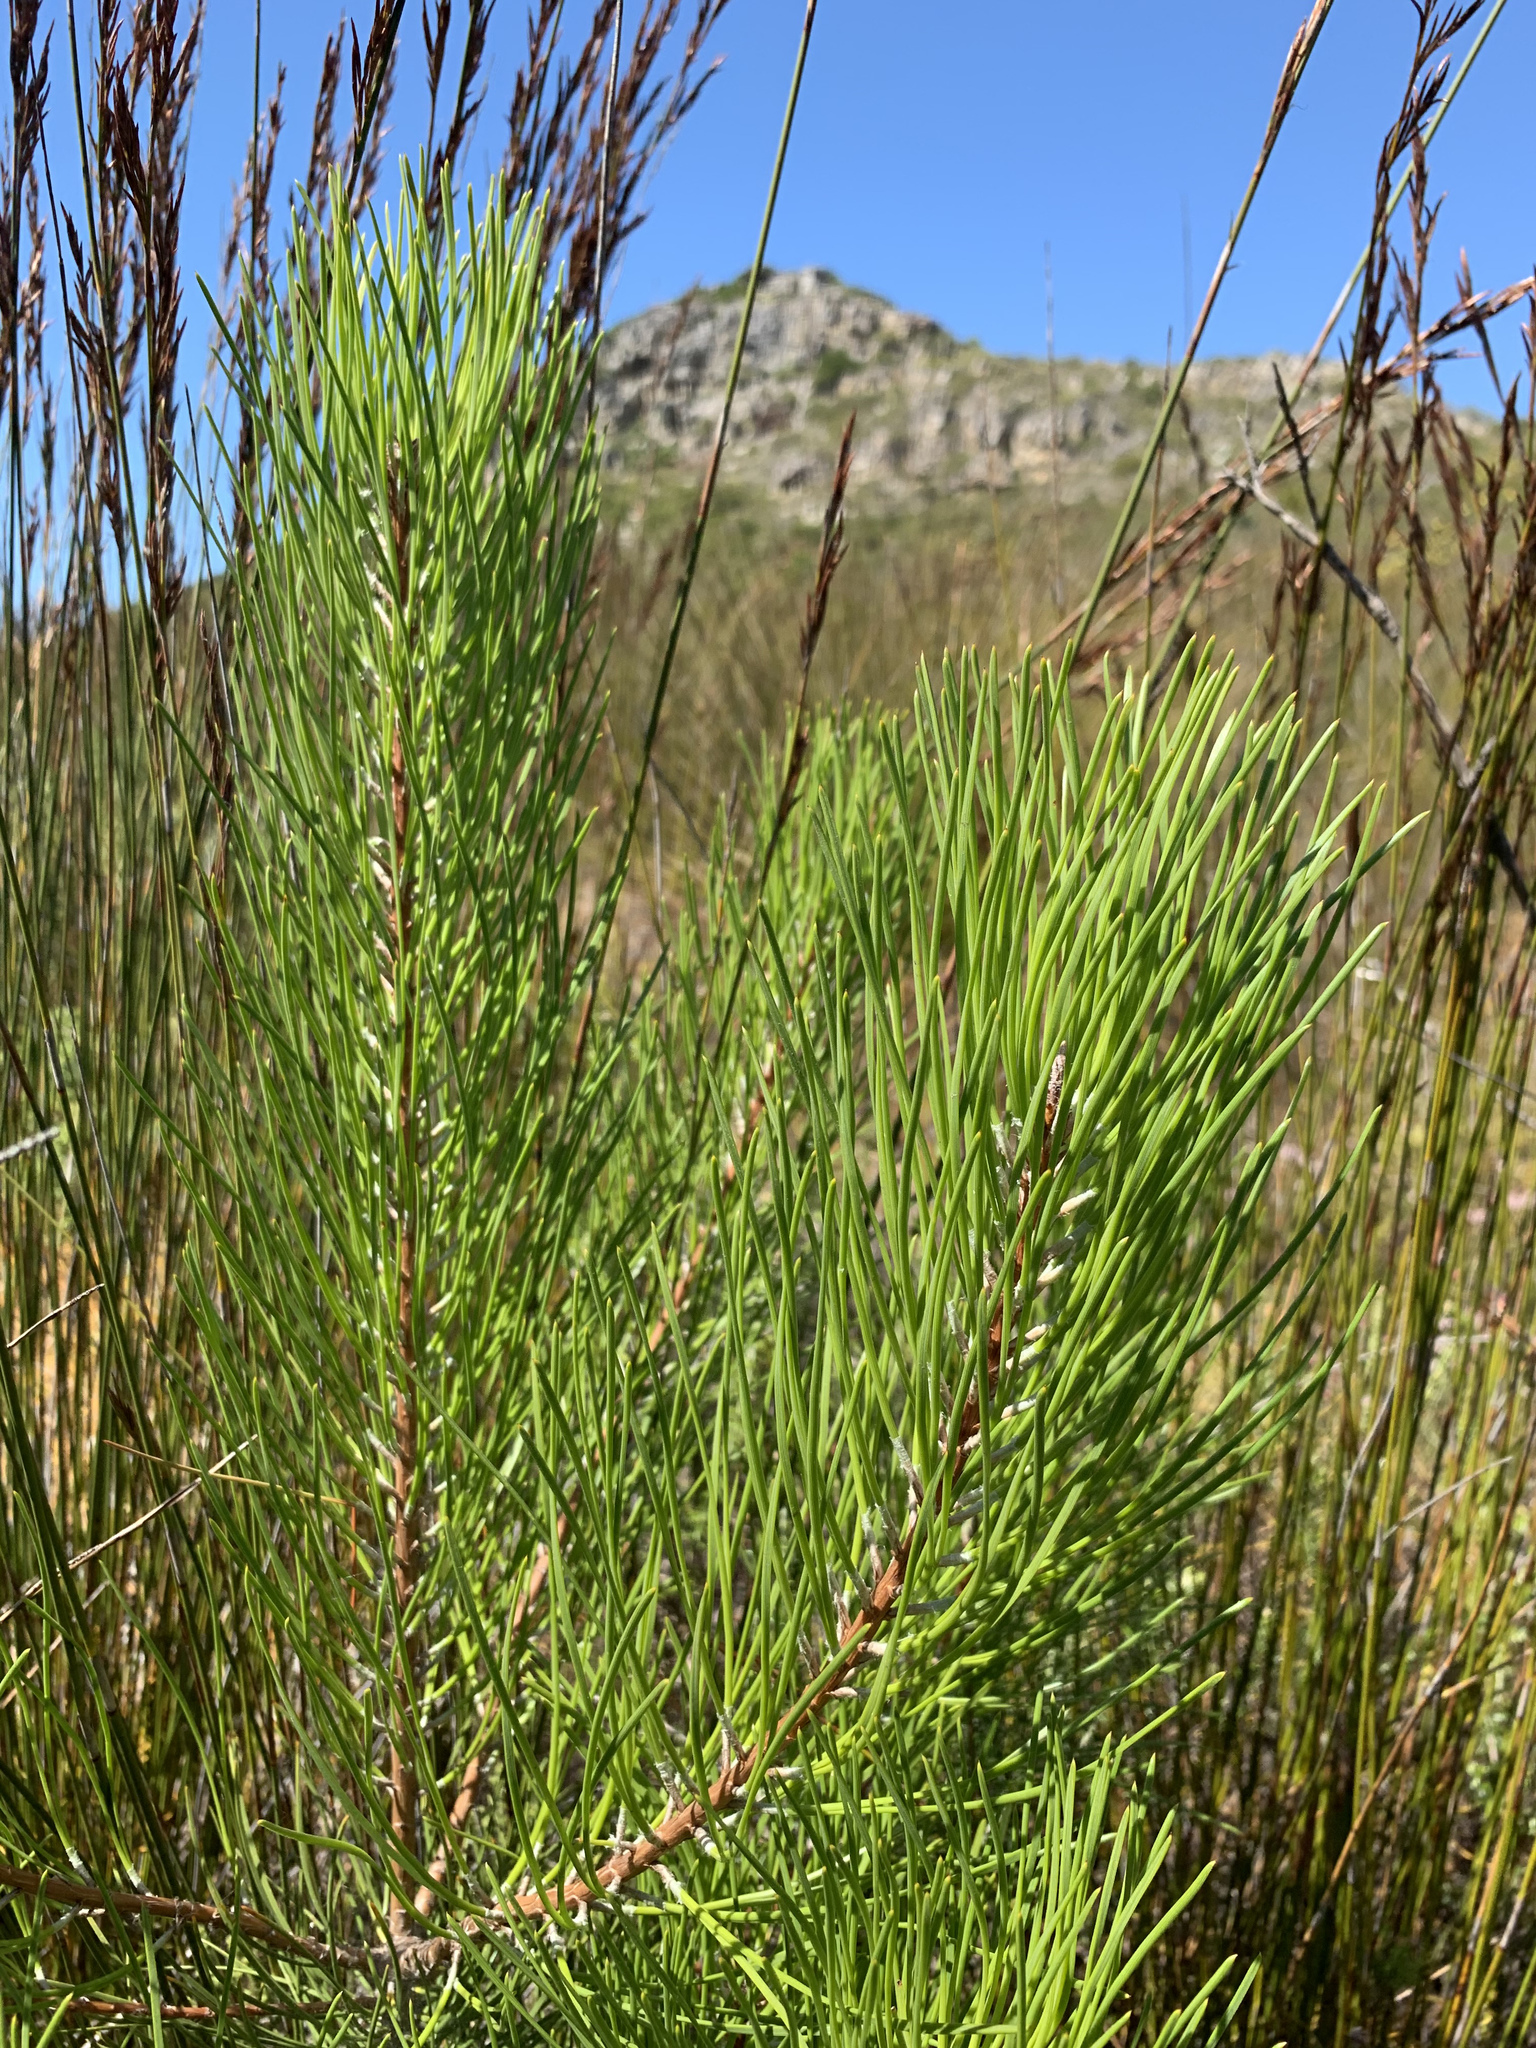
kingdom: Plantae
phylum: Tracheophyta
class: Pinopsida
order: Pinales
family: Pinaceae
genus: Pinus
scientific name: Pinus pinaster
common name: Maritime pine
